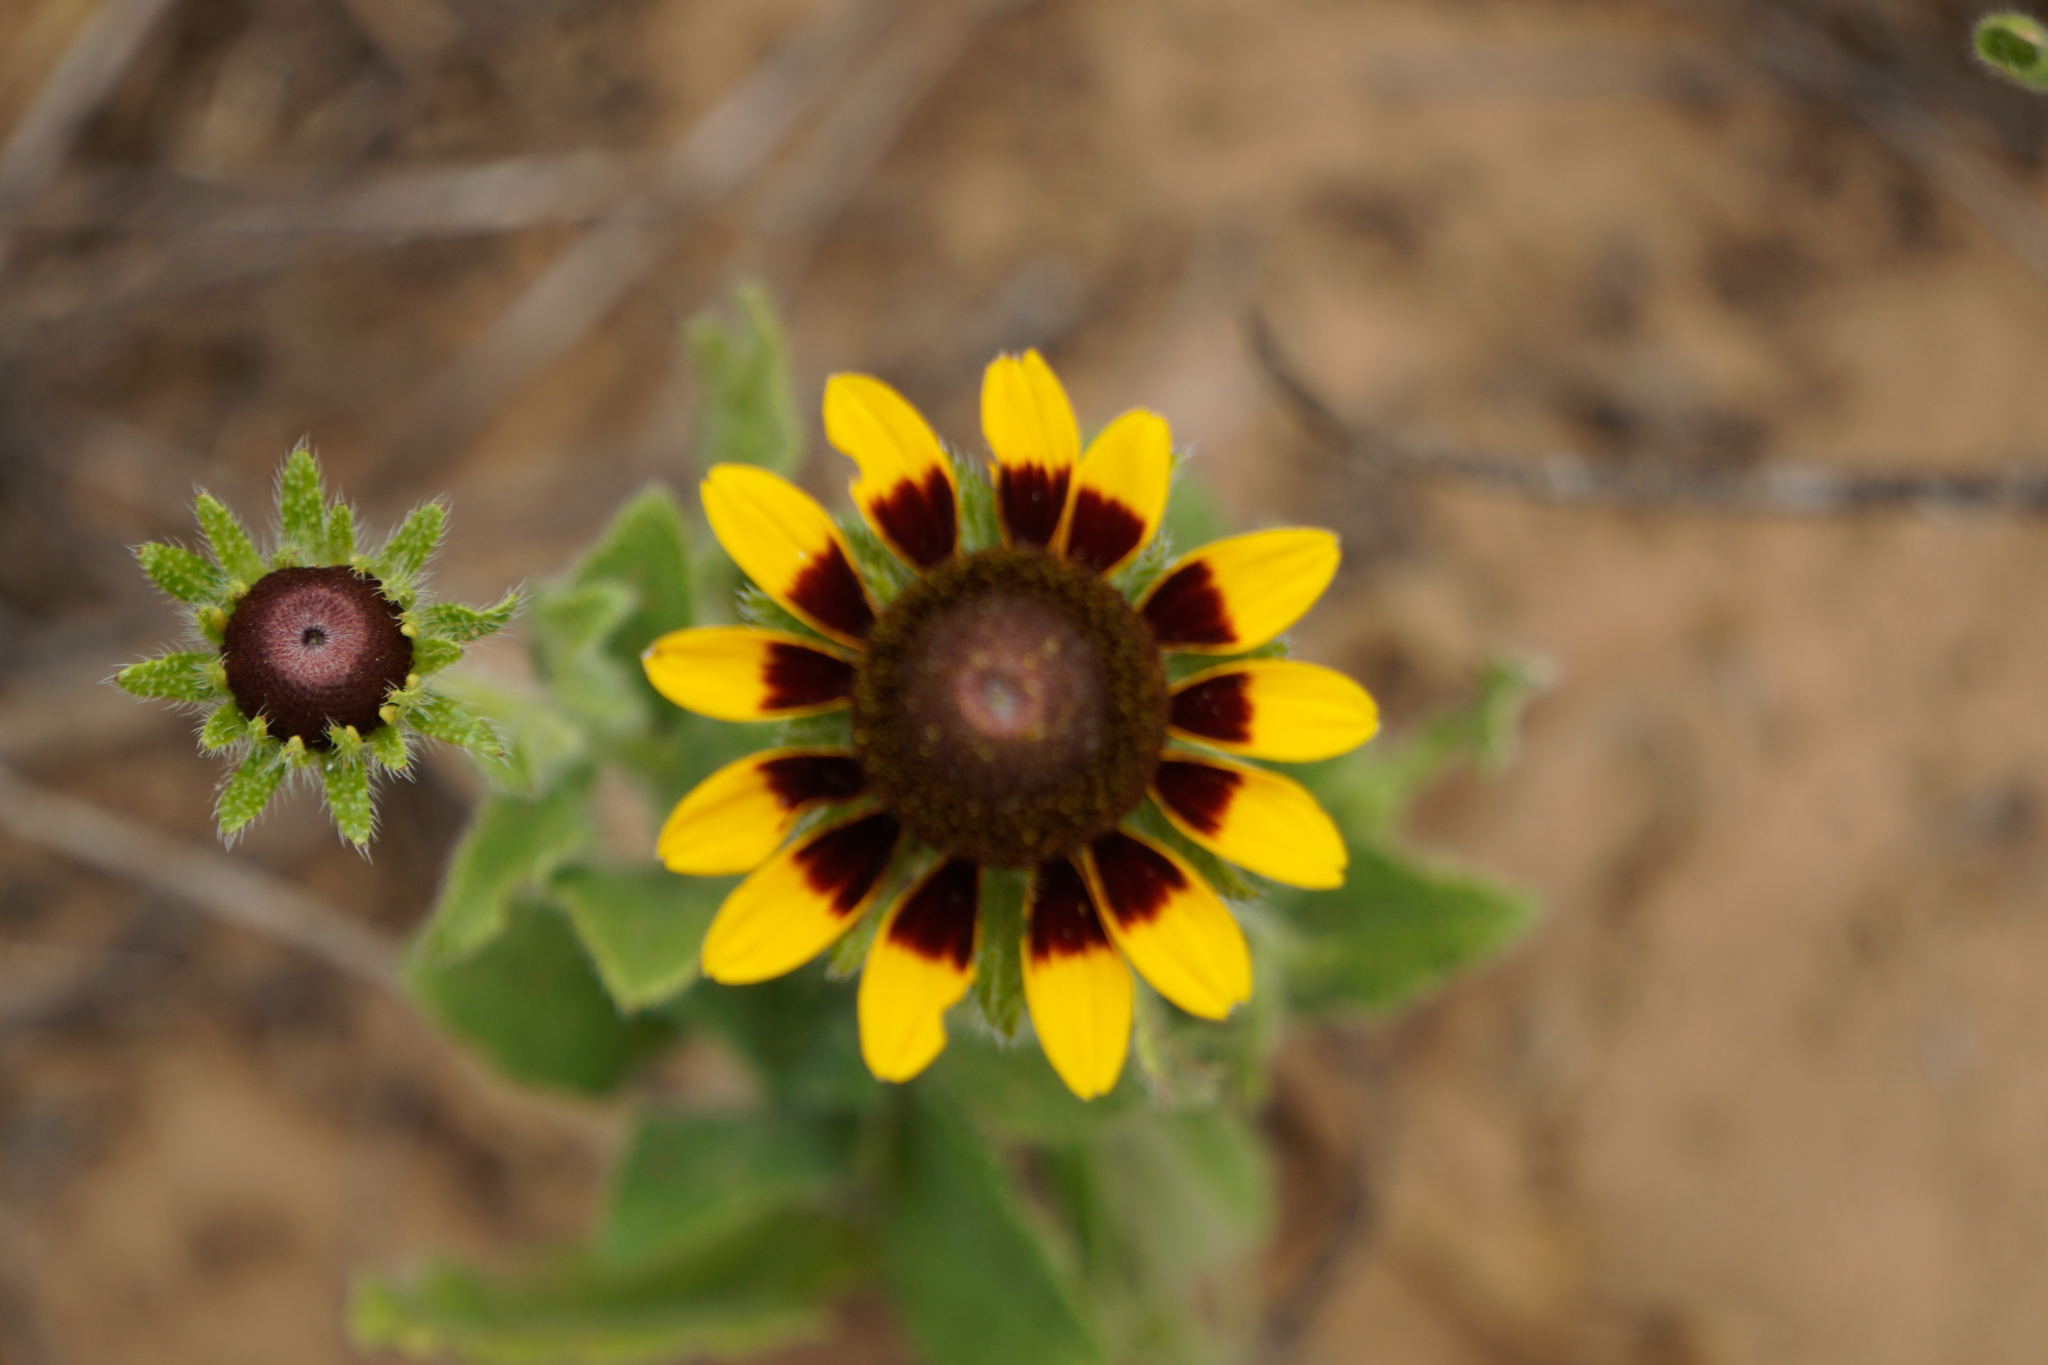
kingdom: Plantae
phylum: Tracheophyta
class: Magnoliopsida
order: Asterales
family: Asteraceae
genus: Rudbeckia
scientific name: Rudbeckia hirta
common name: Black-eyed-susan
